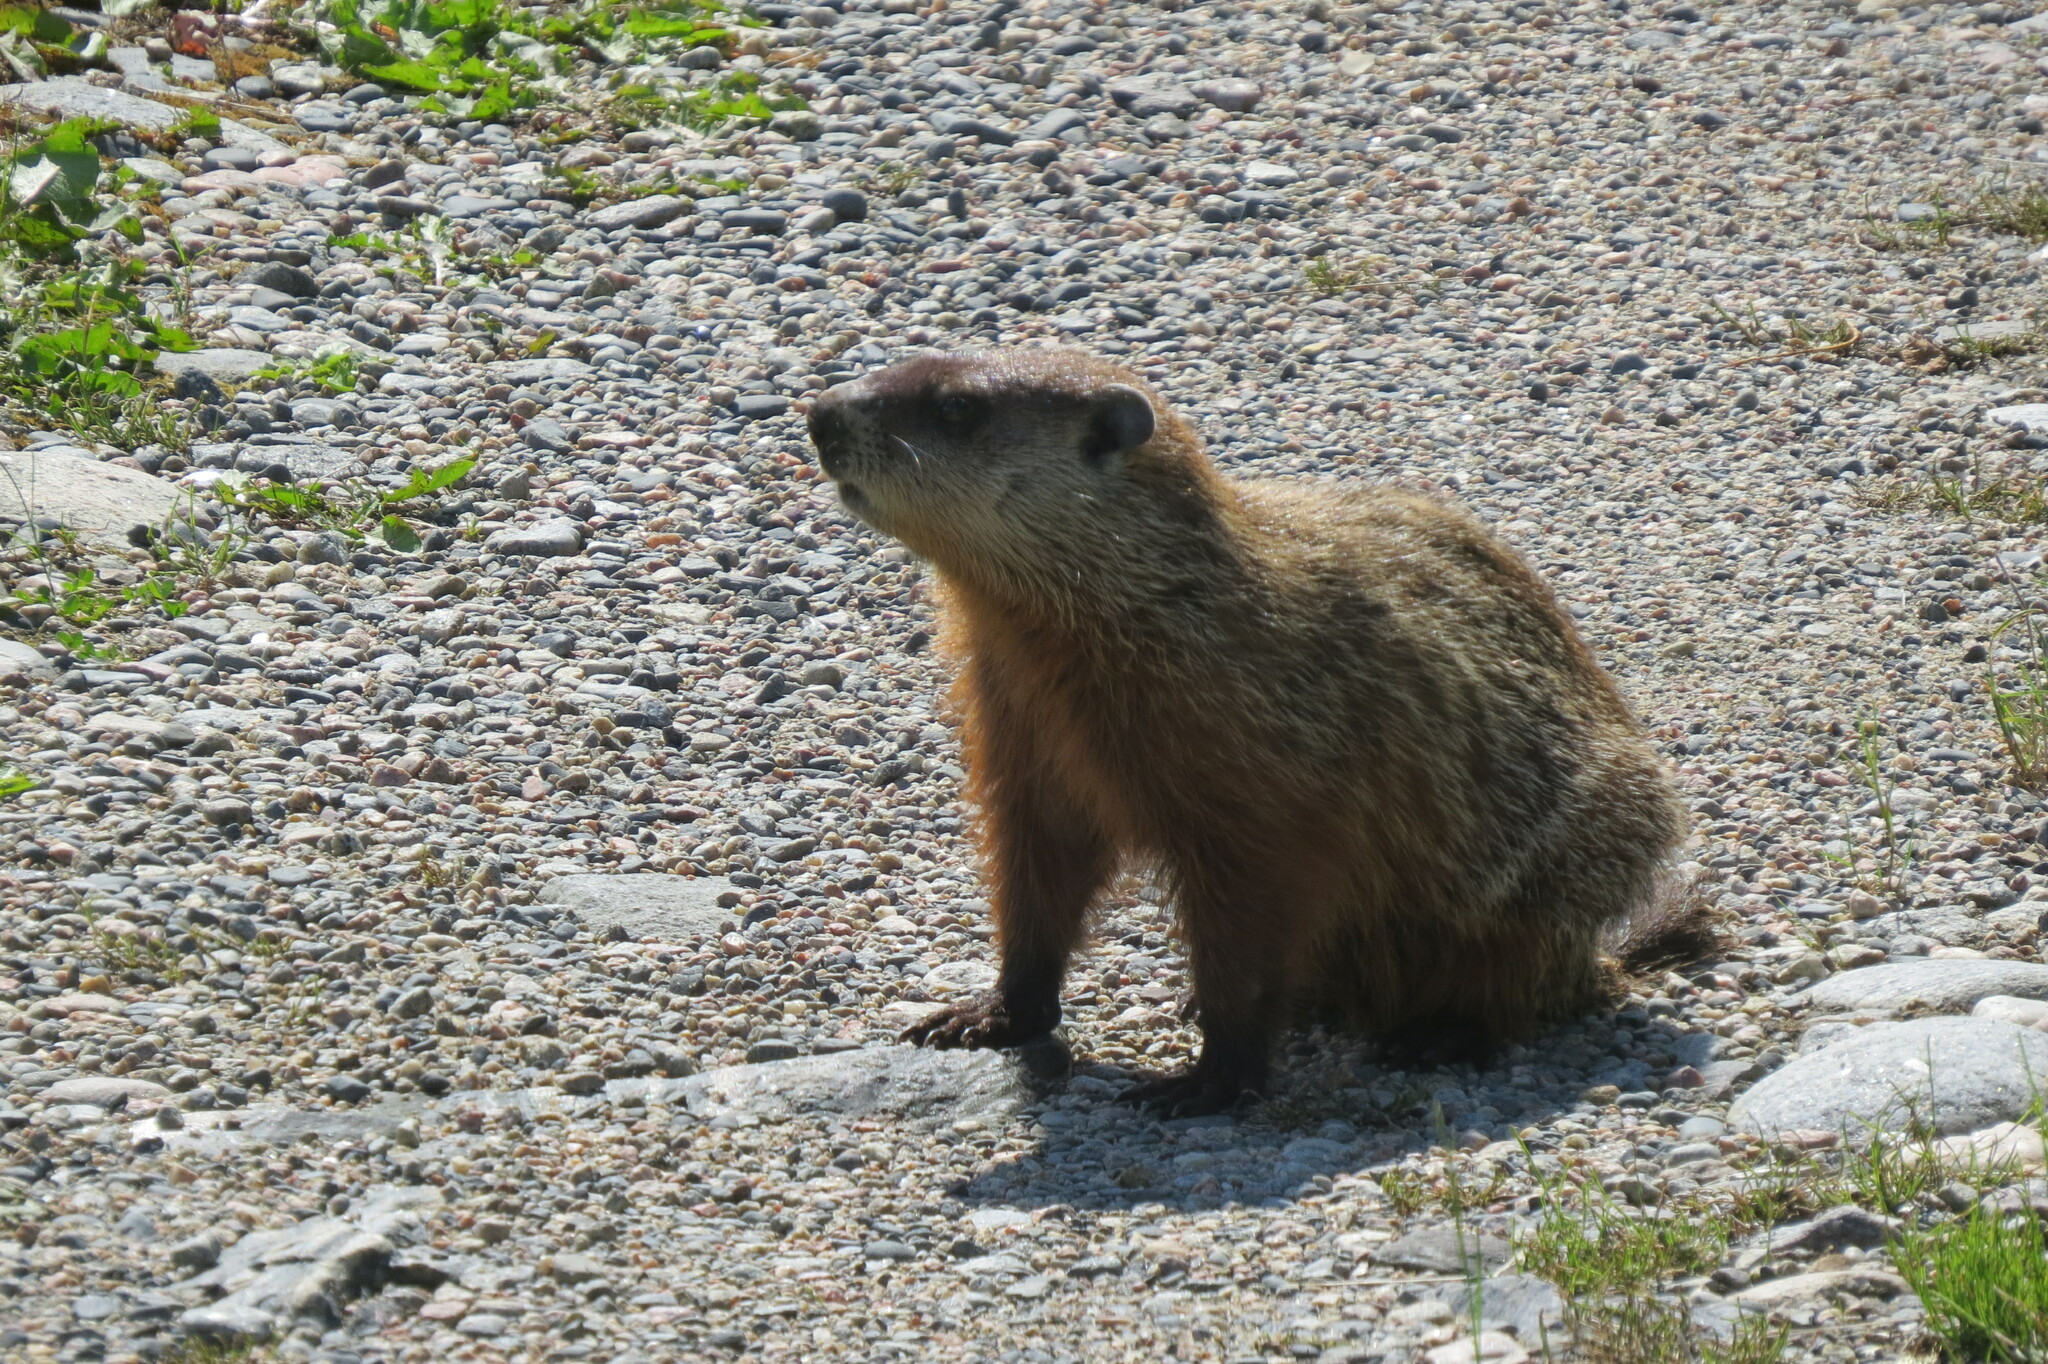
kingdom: Animalia
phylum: Chordata
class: Mammalia
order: Rodentia
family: Sciuridae
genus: Marmota
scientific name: Marmota monax
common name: Groundhog
